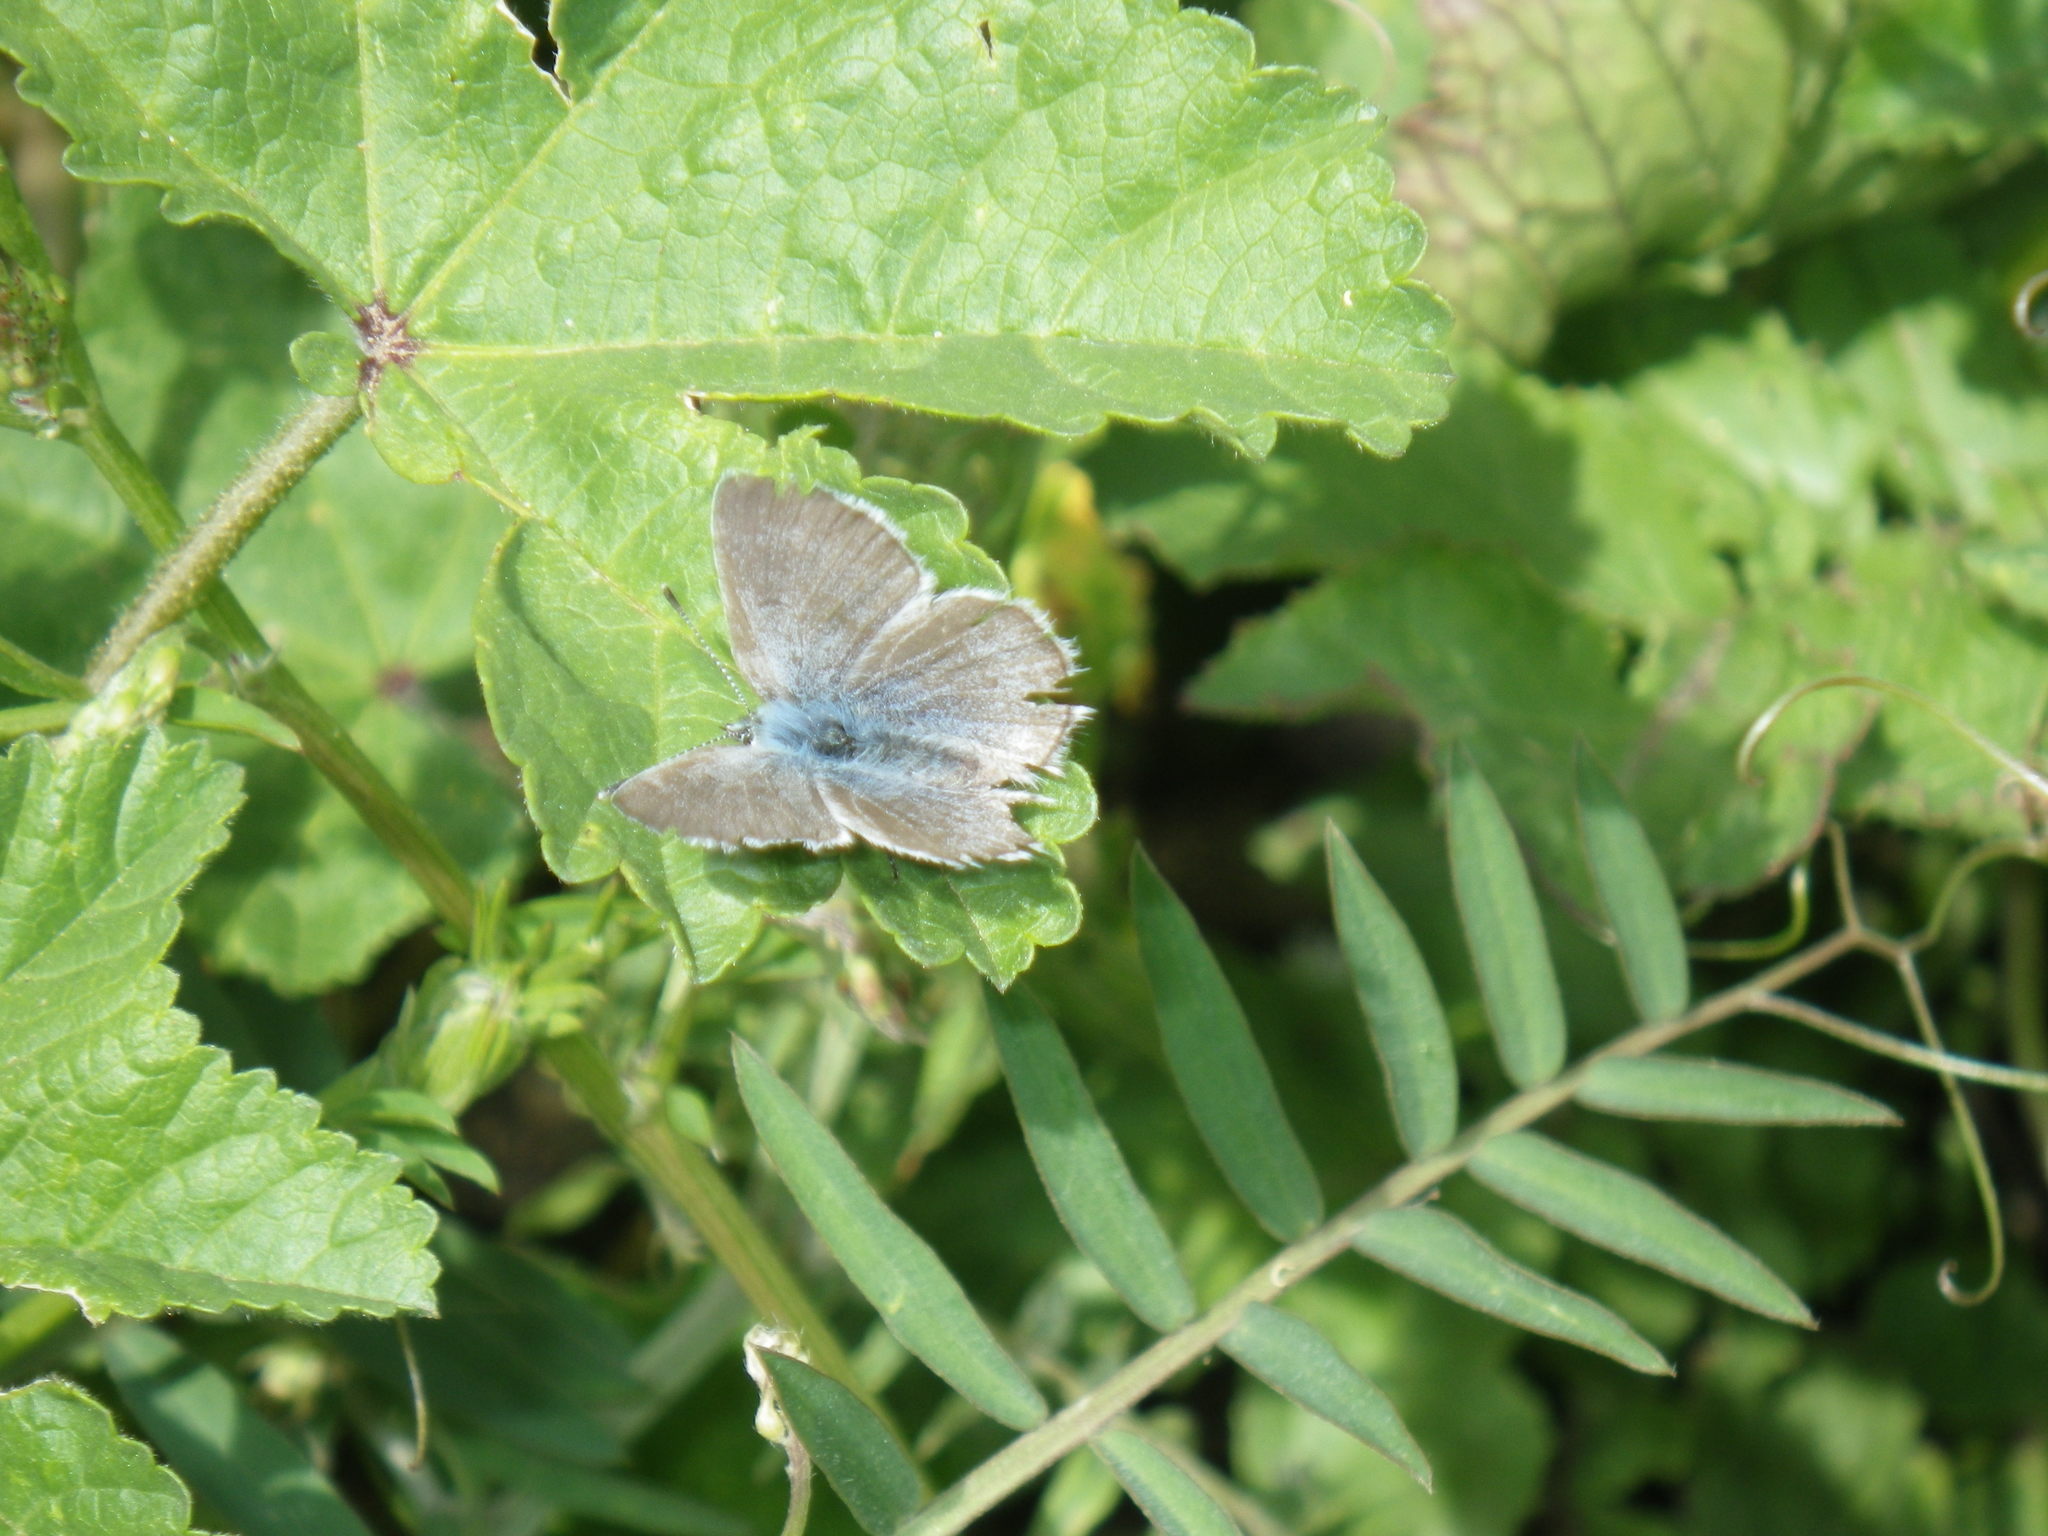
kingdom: Animalia
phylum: Arthropoda
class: Insecta
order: Lepidoptera
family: Lycaenidae
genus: Glaucopsyche
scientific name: Glaucopsyche lygdamus
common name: Silvery blue
